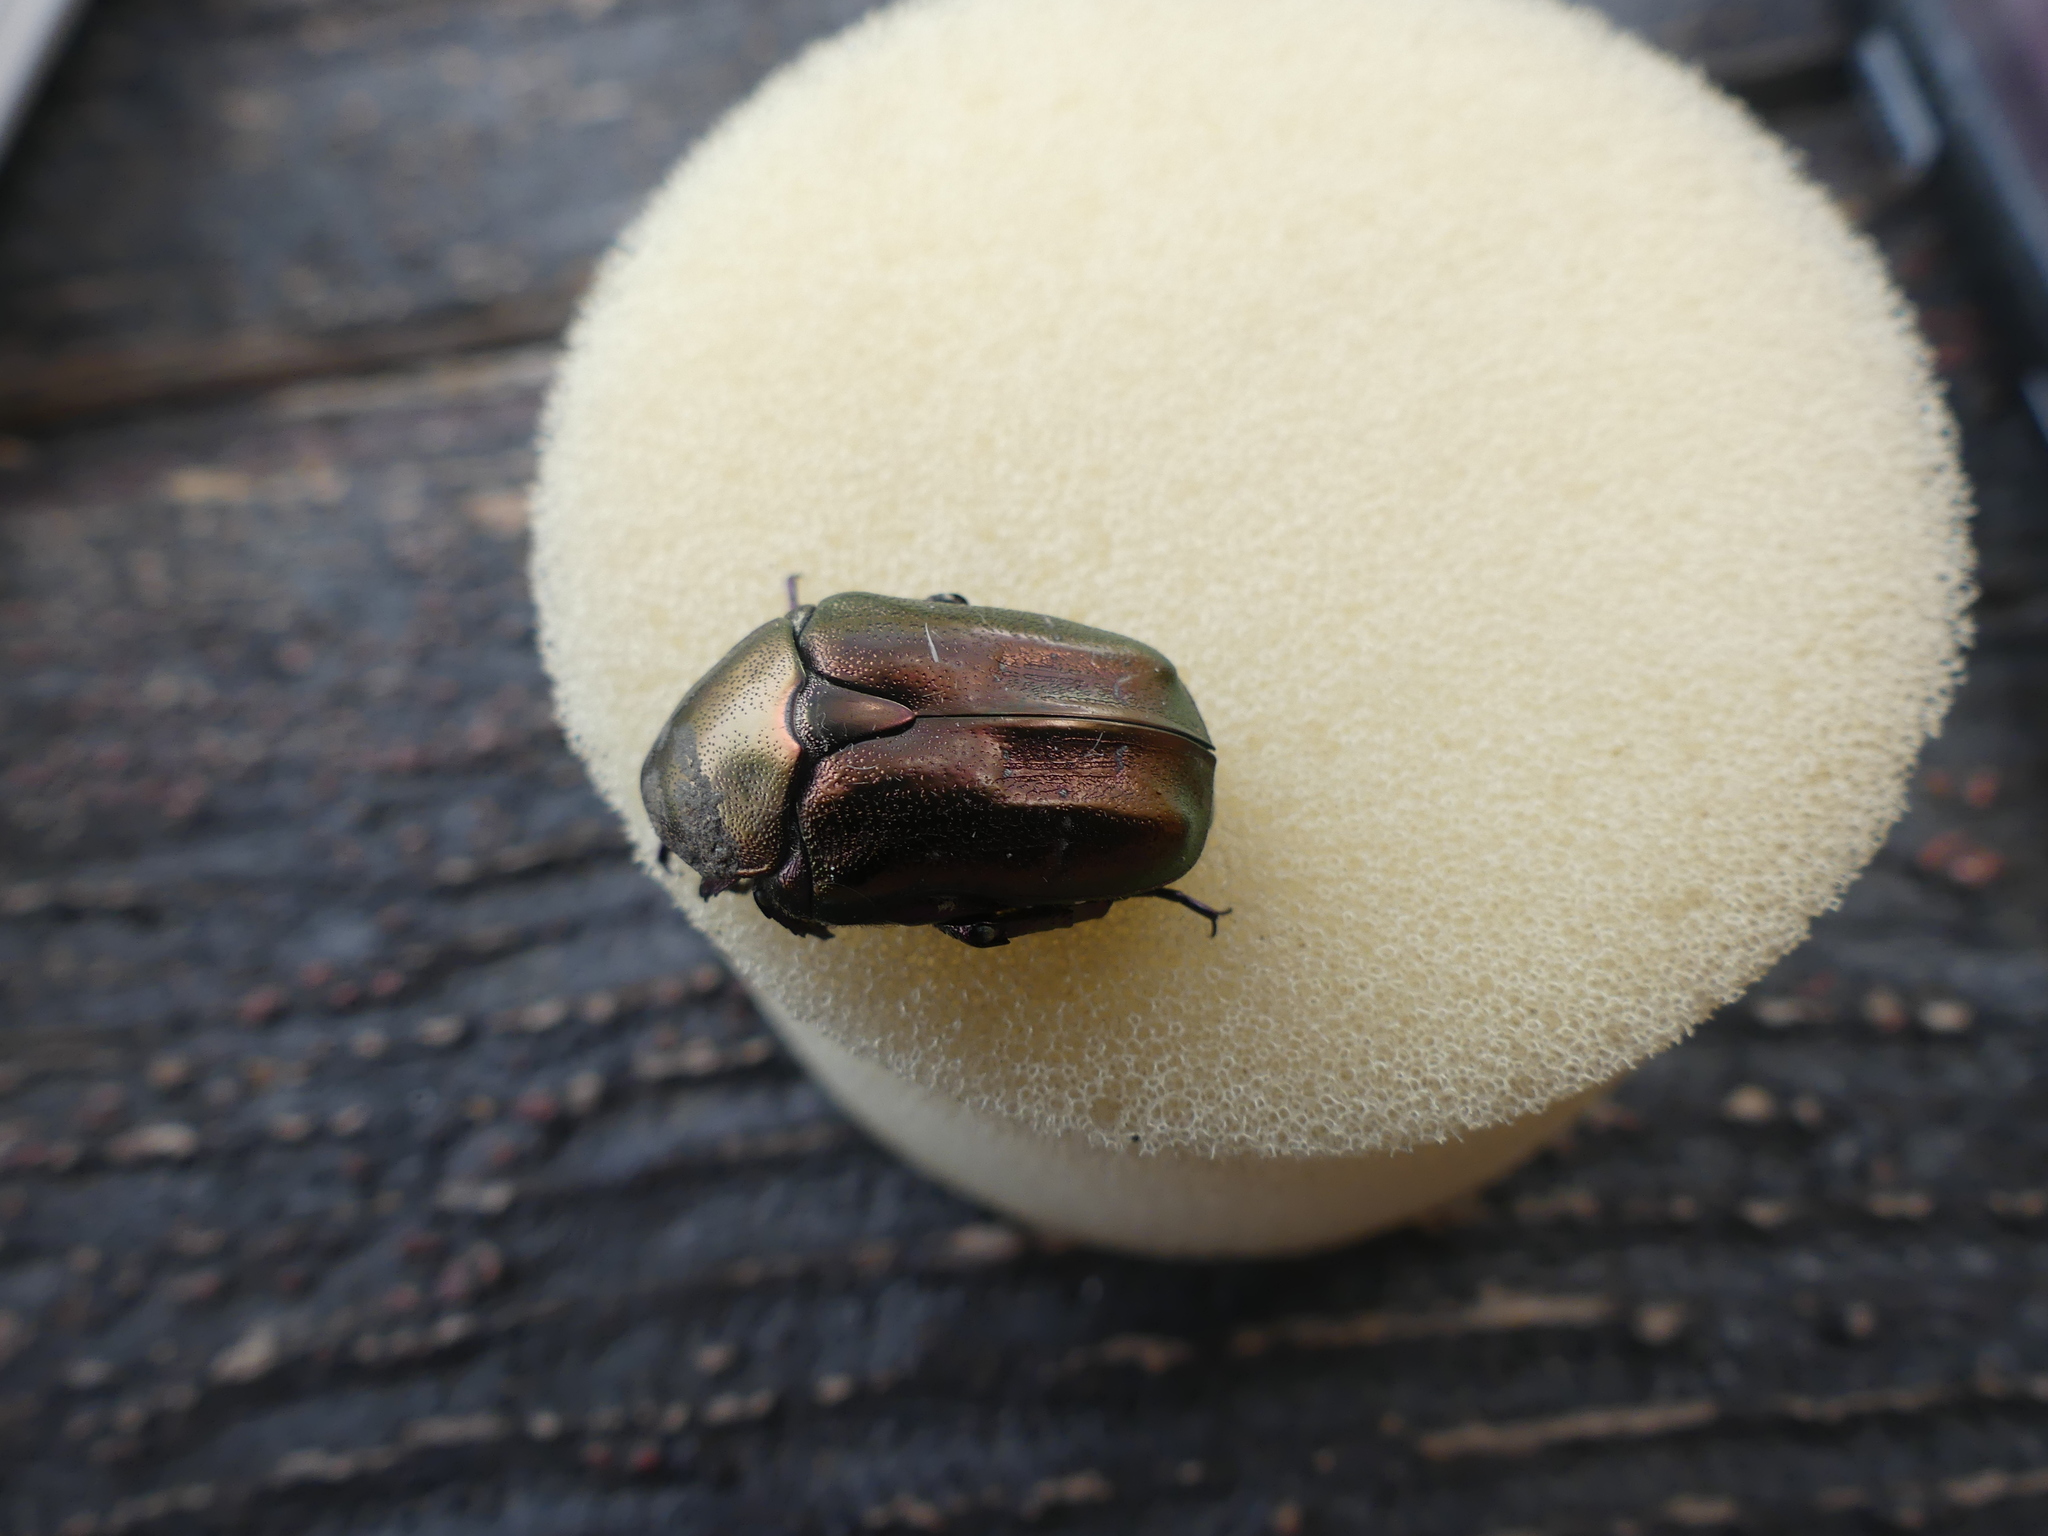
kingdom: Animalia
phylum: Arthropoda
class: Insecta
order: Coleoptera
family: Scarabaeidae
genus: Protaetia
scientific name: Protaetia cuprea
